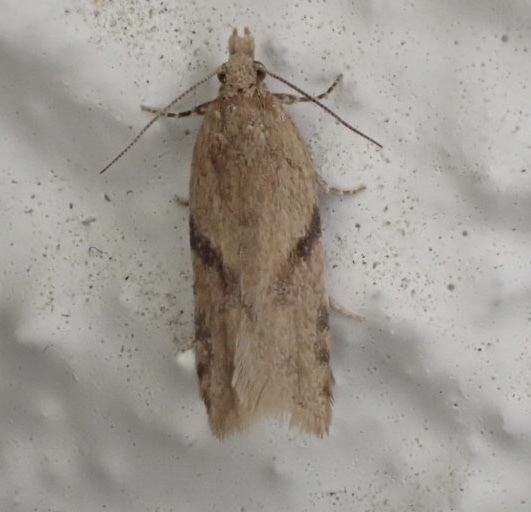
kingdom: Animalia
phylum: Arthropoda
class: Insecta
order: Lepidoptera
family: Tortricidae
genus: Capua
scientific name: Capua semiferana
